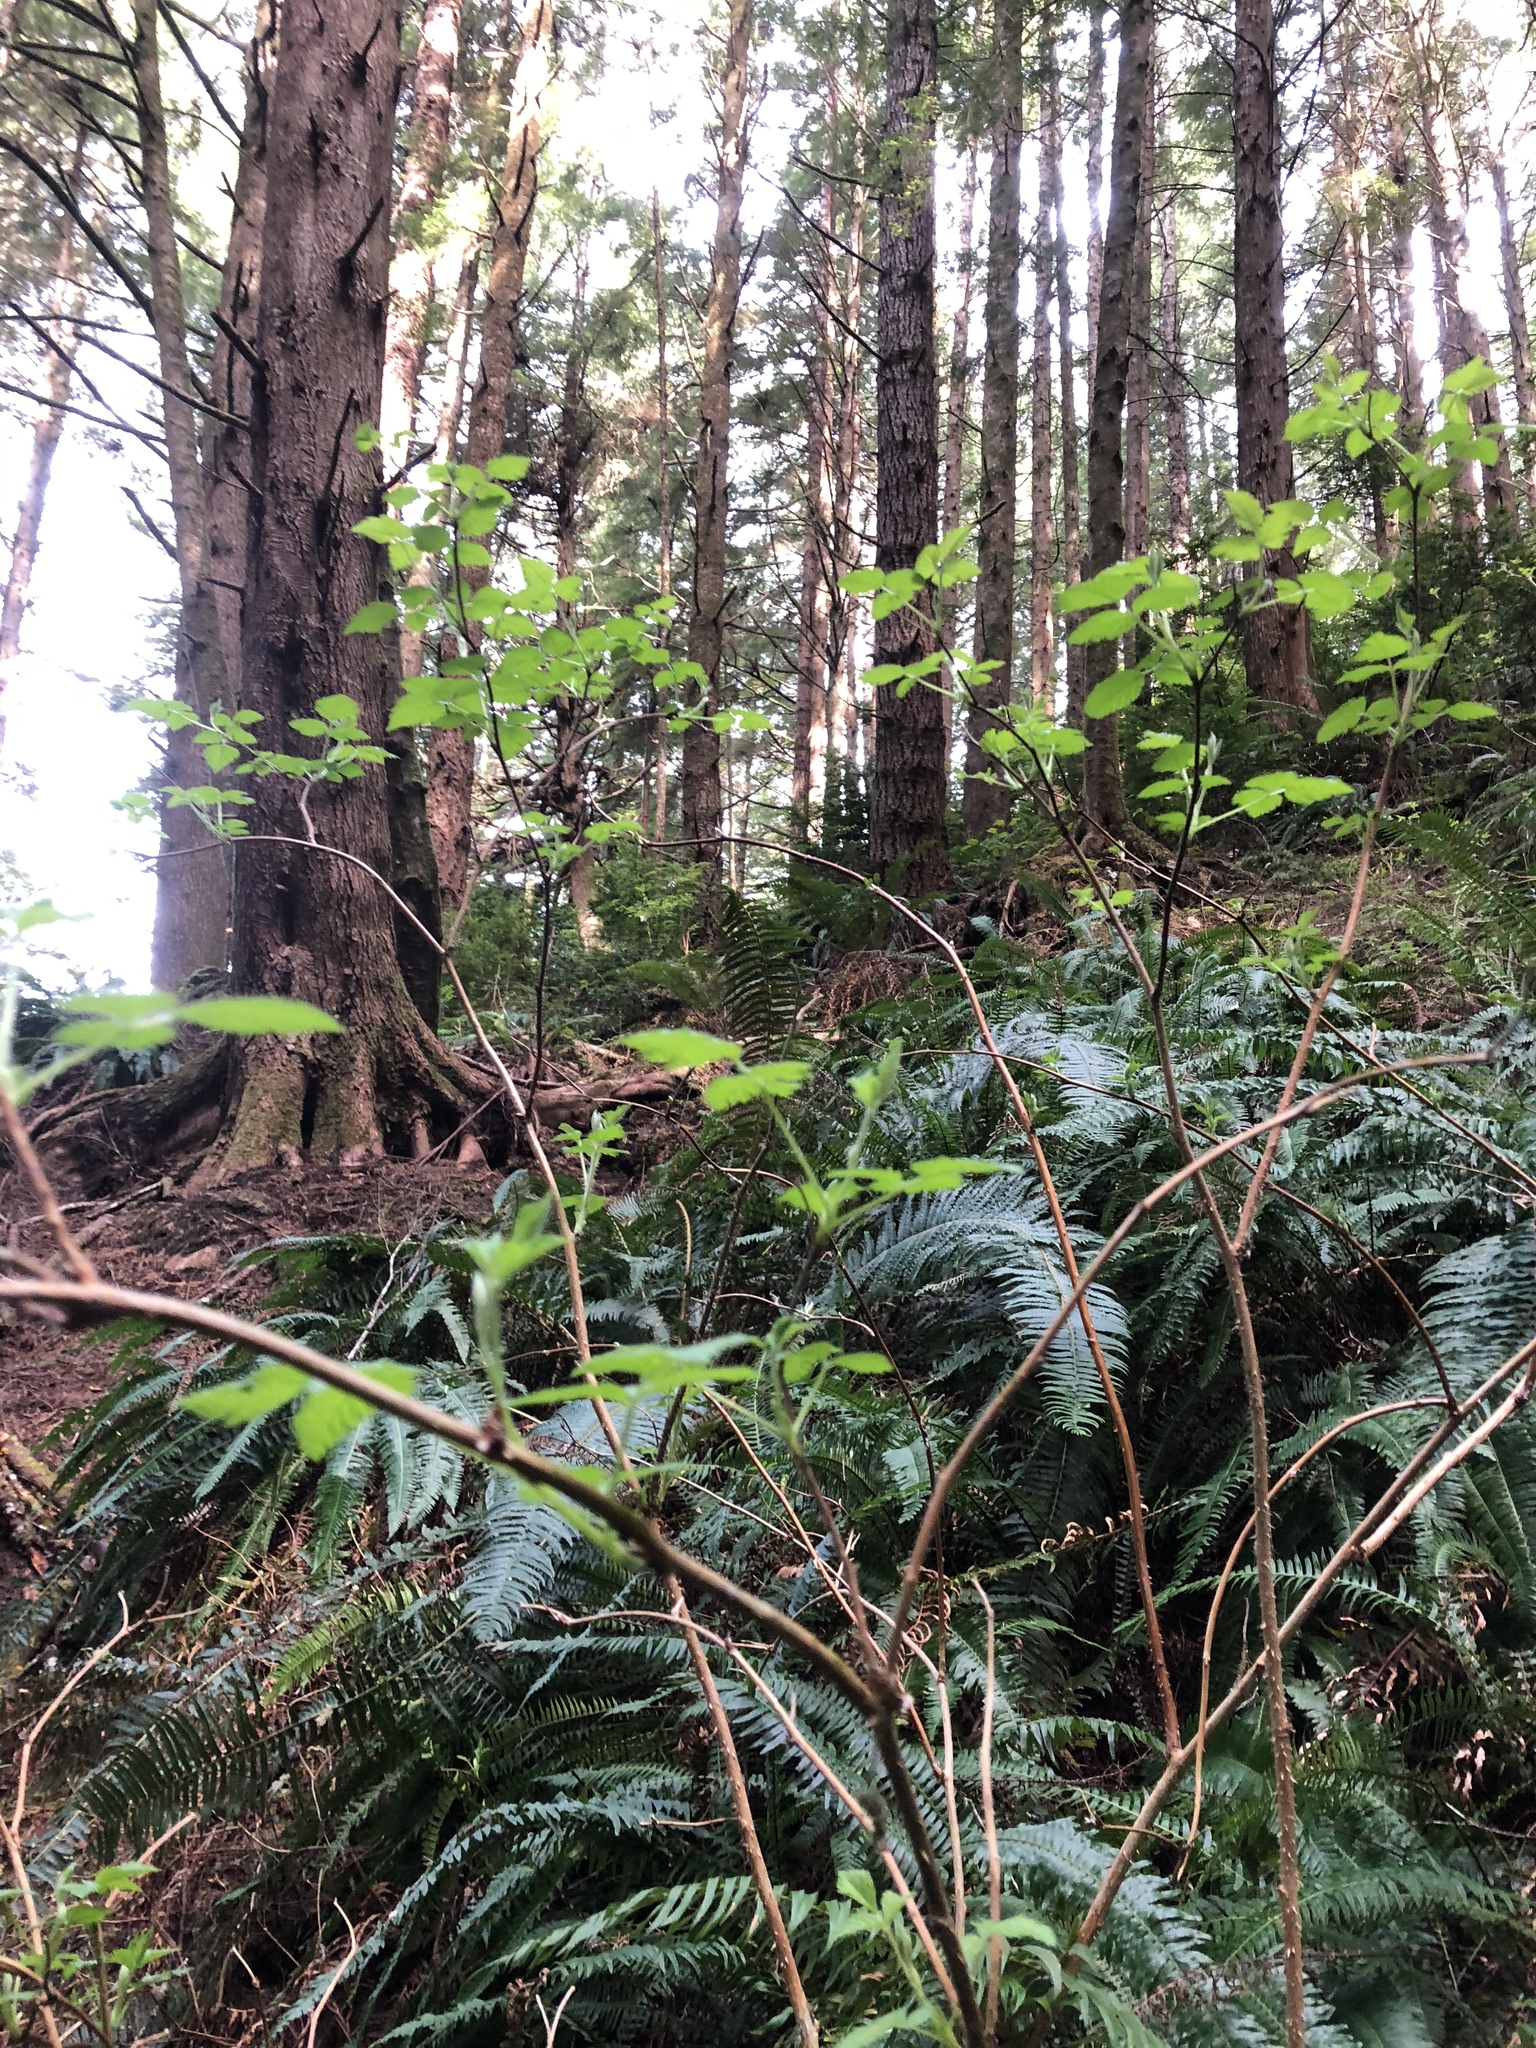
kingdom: Plantae
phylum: Tracheophyta
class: Magnoliopsida
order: Rosales
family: Rosaceae
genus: Rubus
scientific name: Rubus spectabilis
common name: Salmonberry
